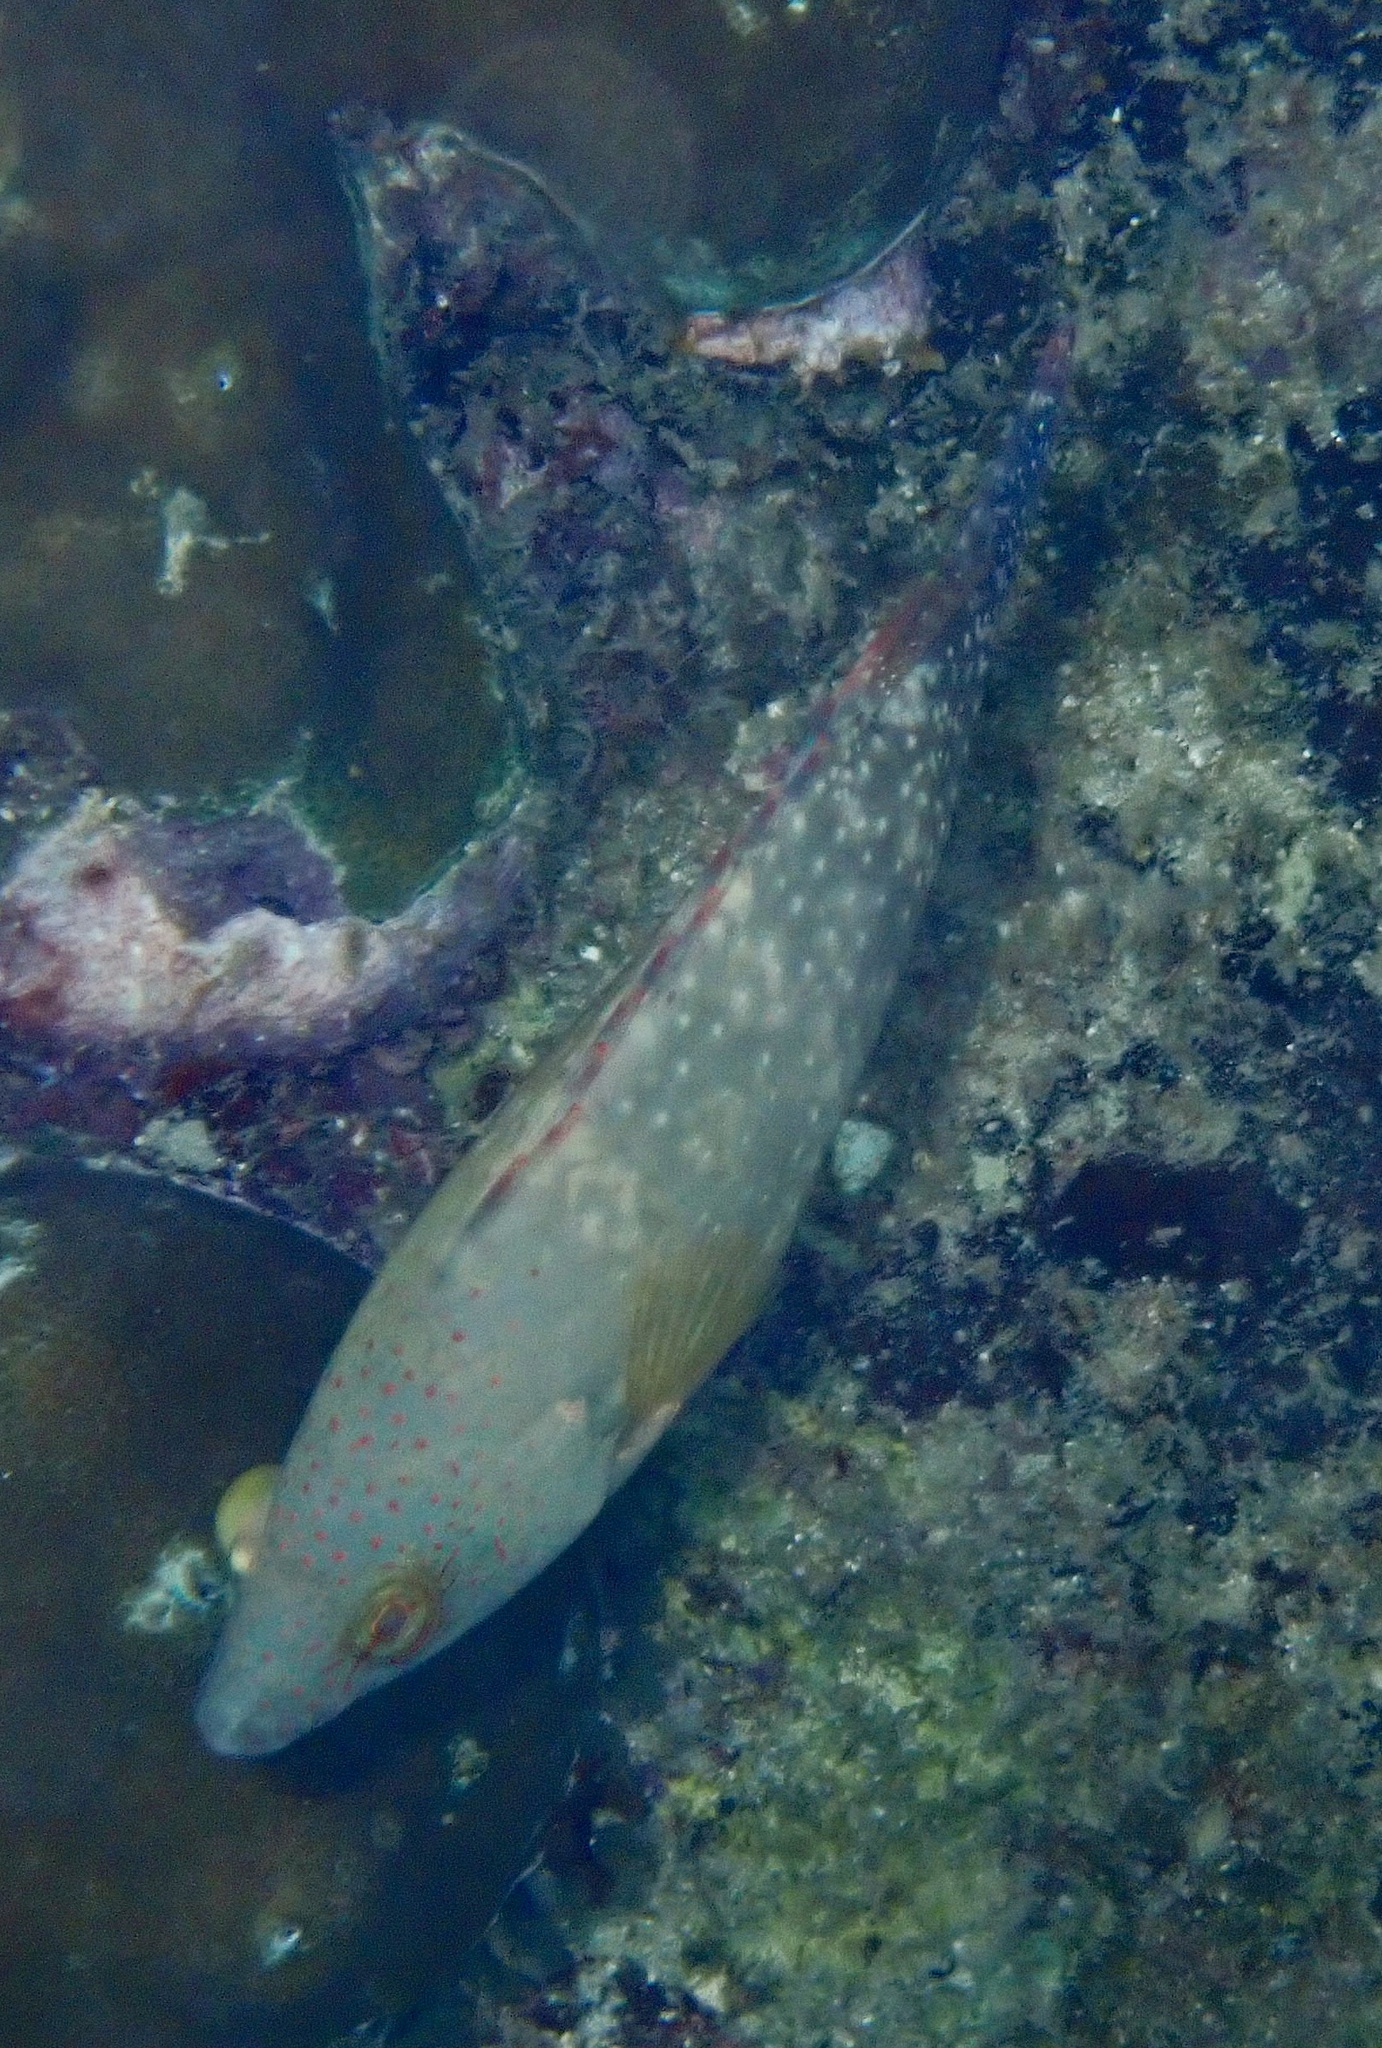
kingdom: Animalia
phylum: Chordata
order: Perciformes
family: Labridae
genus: Cheilinus
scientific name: Cheilinus chlorourus
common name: Floral wrasse
